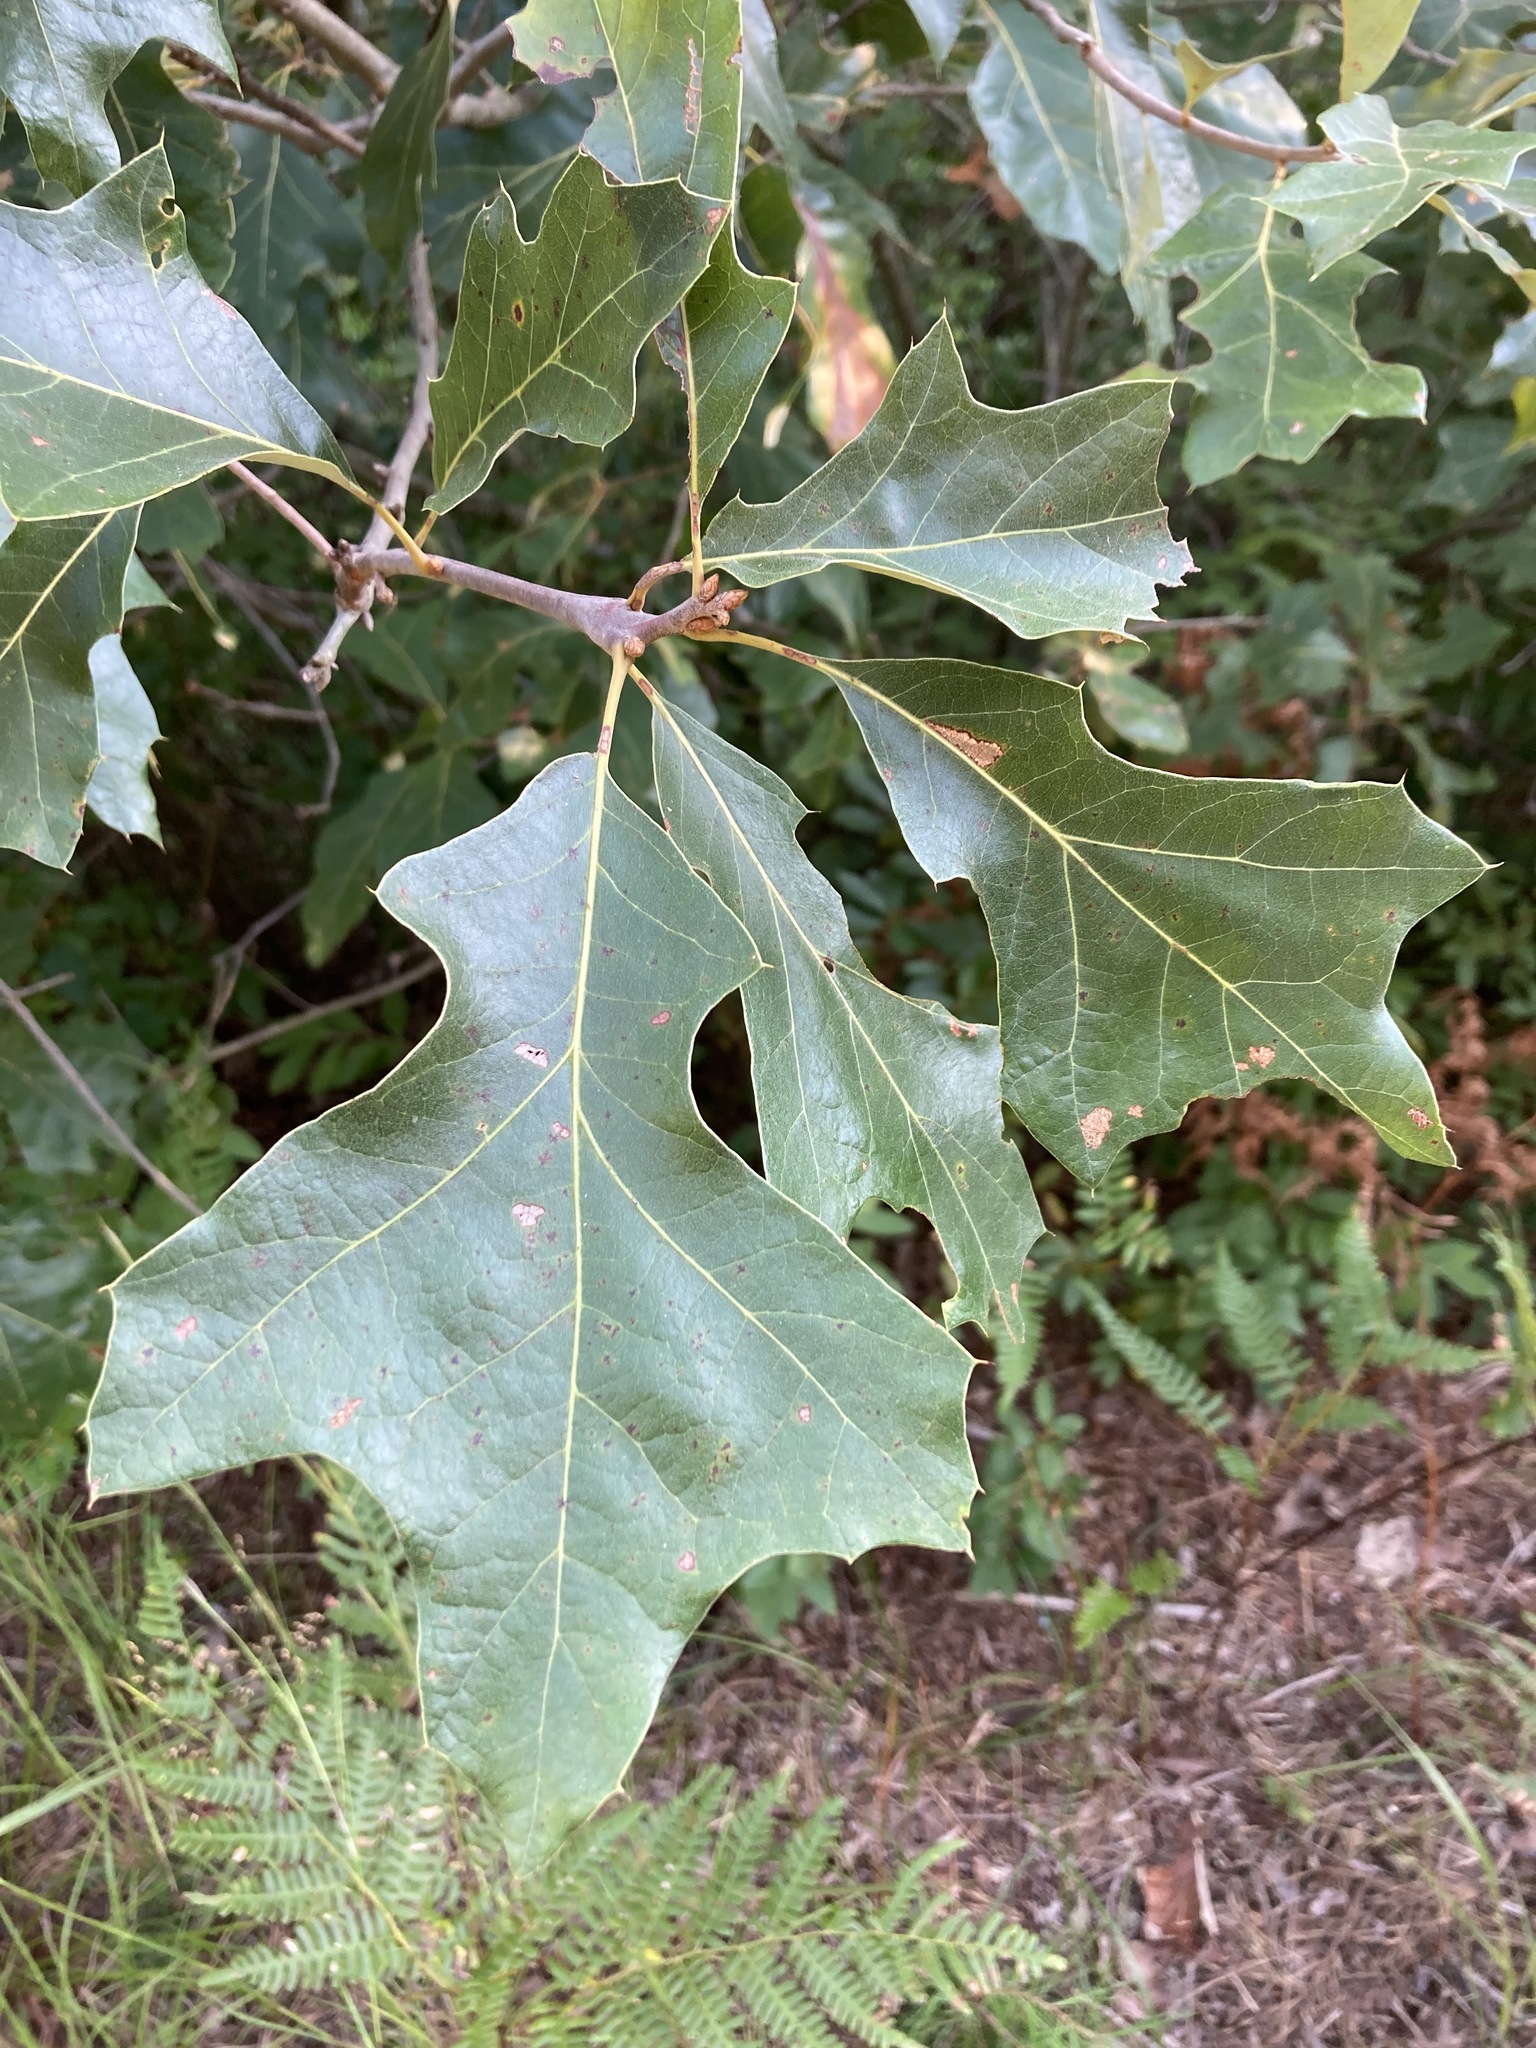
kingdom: Plantae
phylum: Tracheophyta
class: Magnoliopsida
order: Fagales
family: Fagaceae
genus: Quercus
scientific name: Quercus ilicifolia
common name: Bear oak
